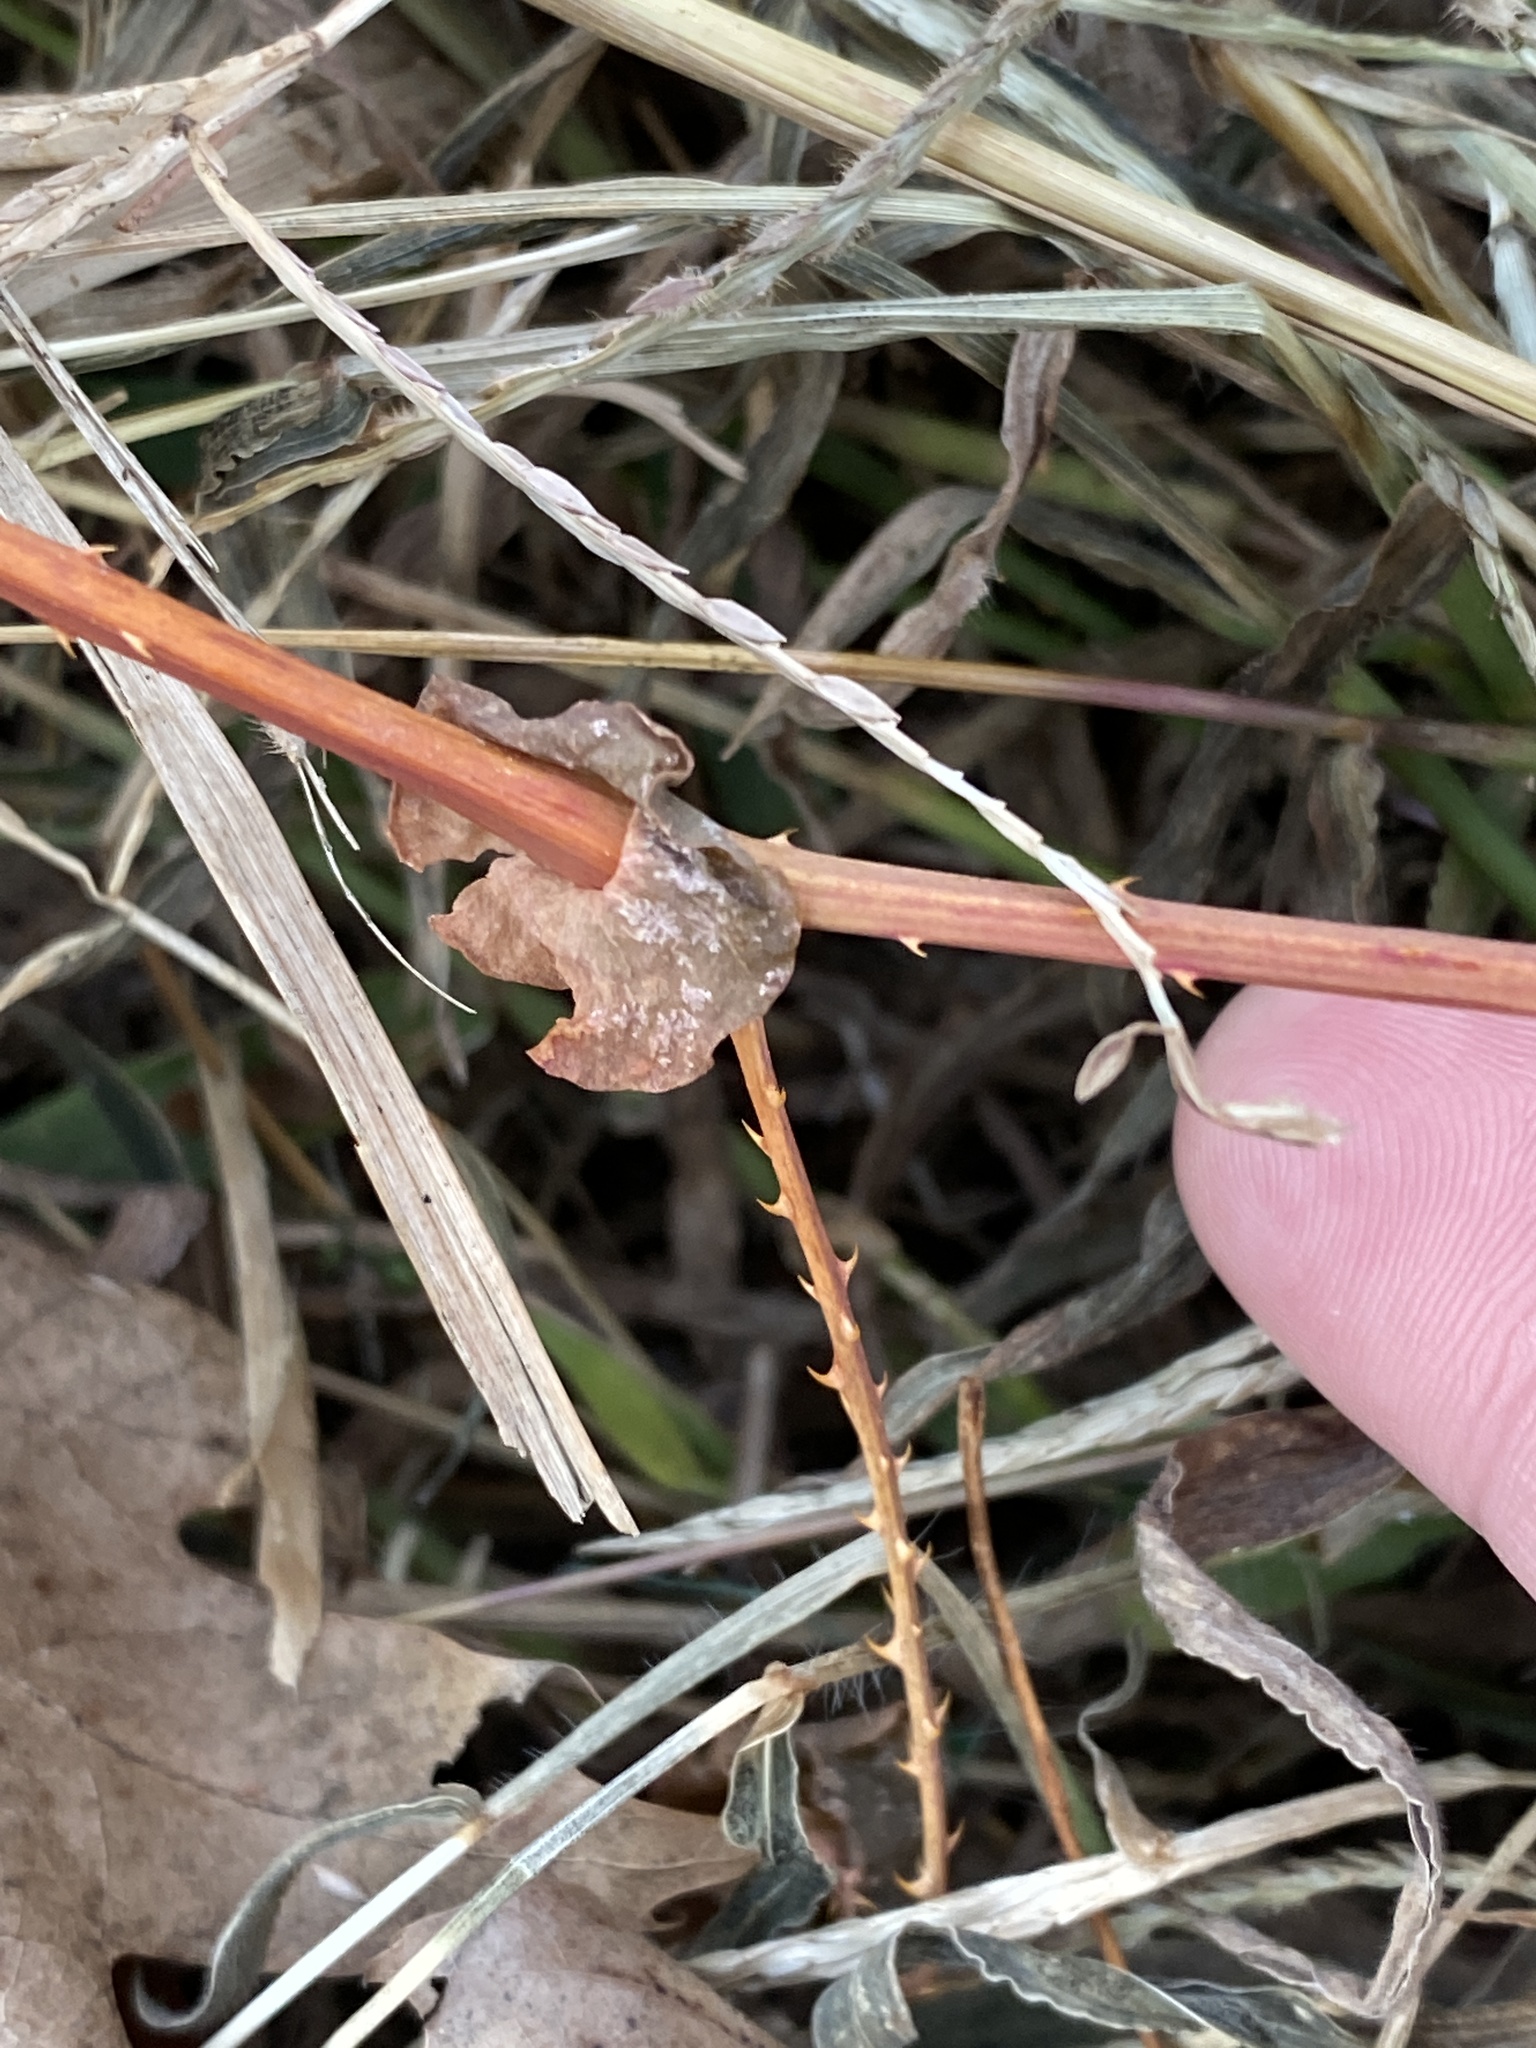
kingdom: Plantae
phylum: Tracheophyta
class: Magnoliopsida
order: Caryophyllales
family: Polygonaceae
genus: Persicaria
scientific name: Persicaria perfoliata
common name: Asiatic tearthumb
